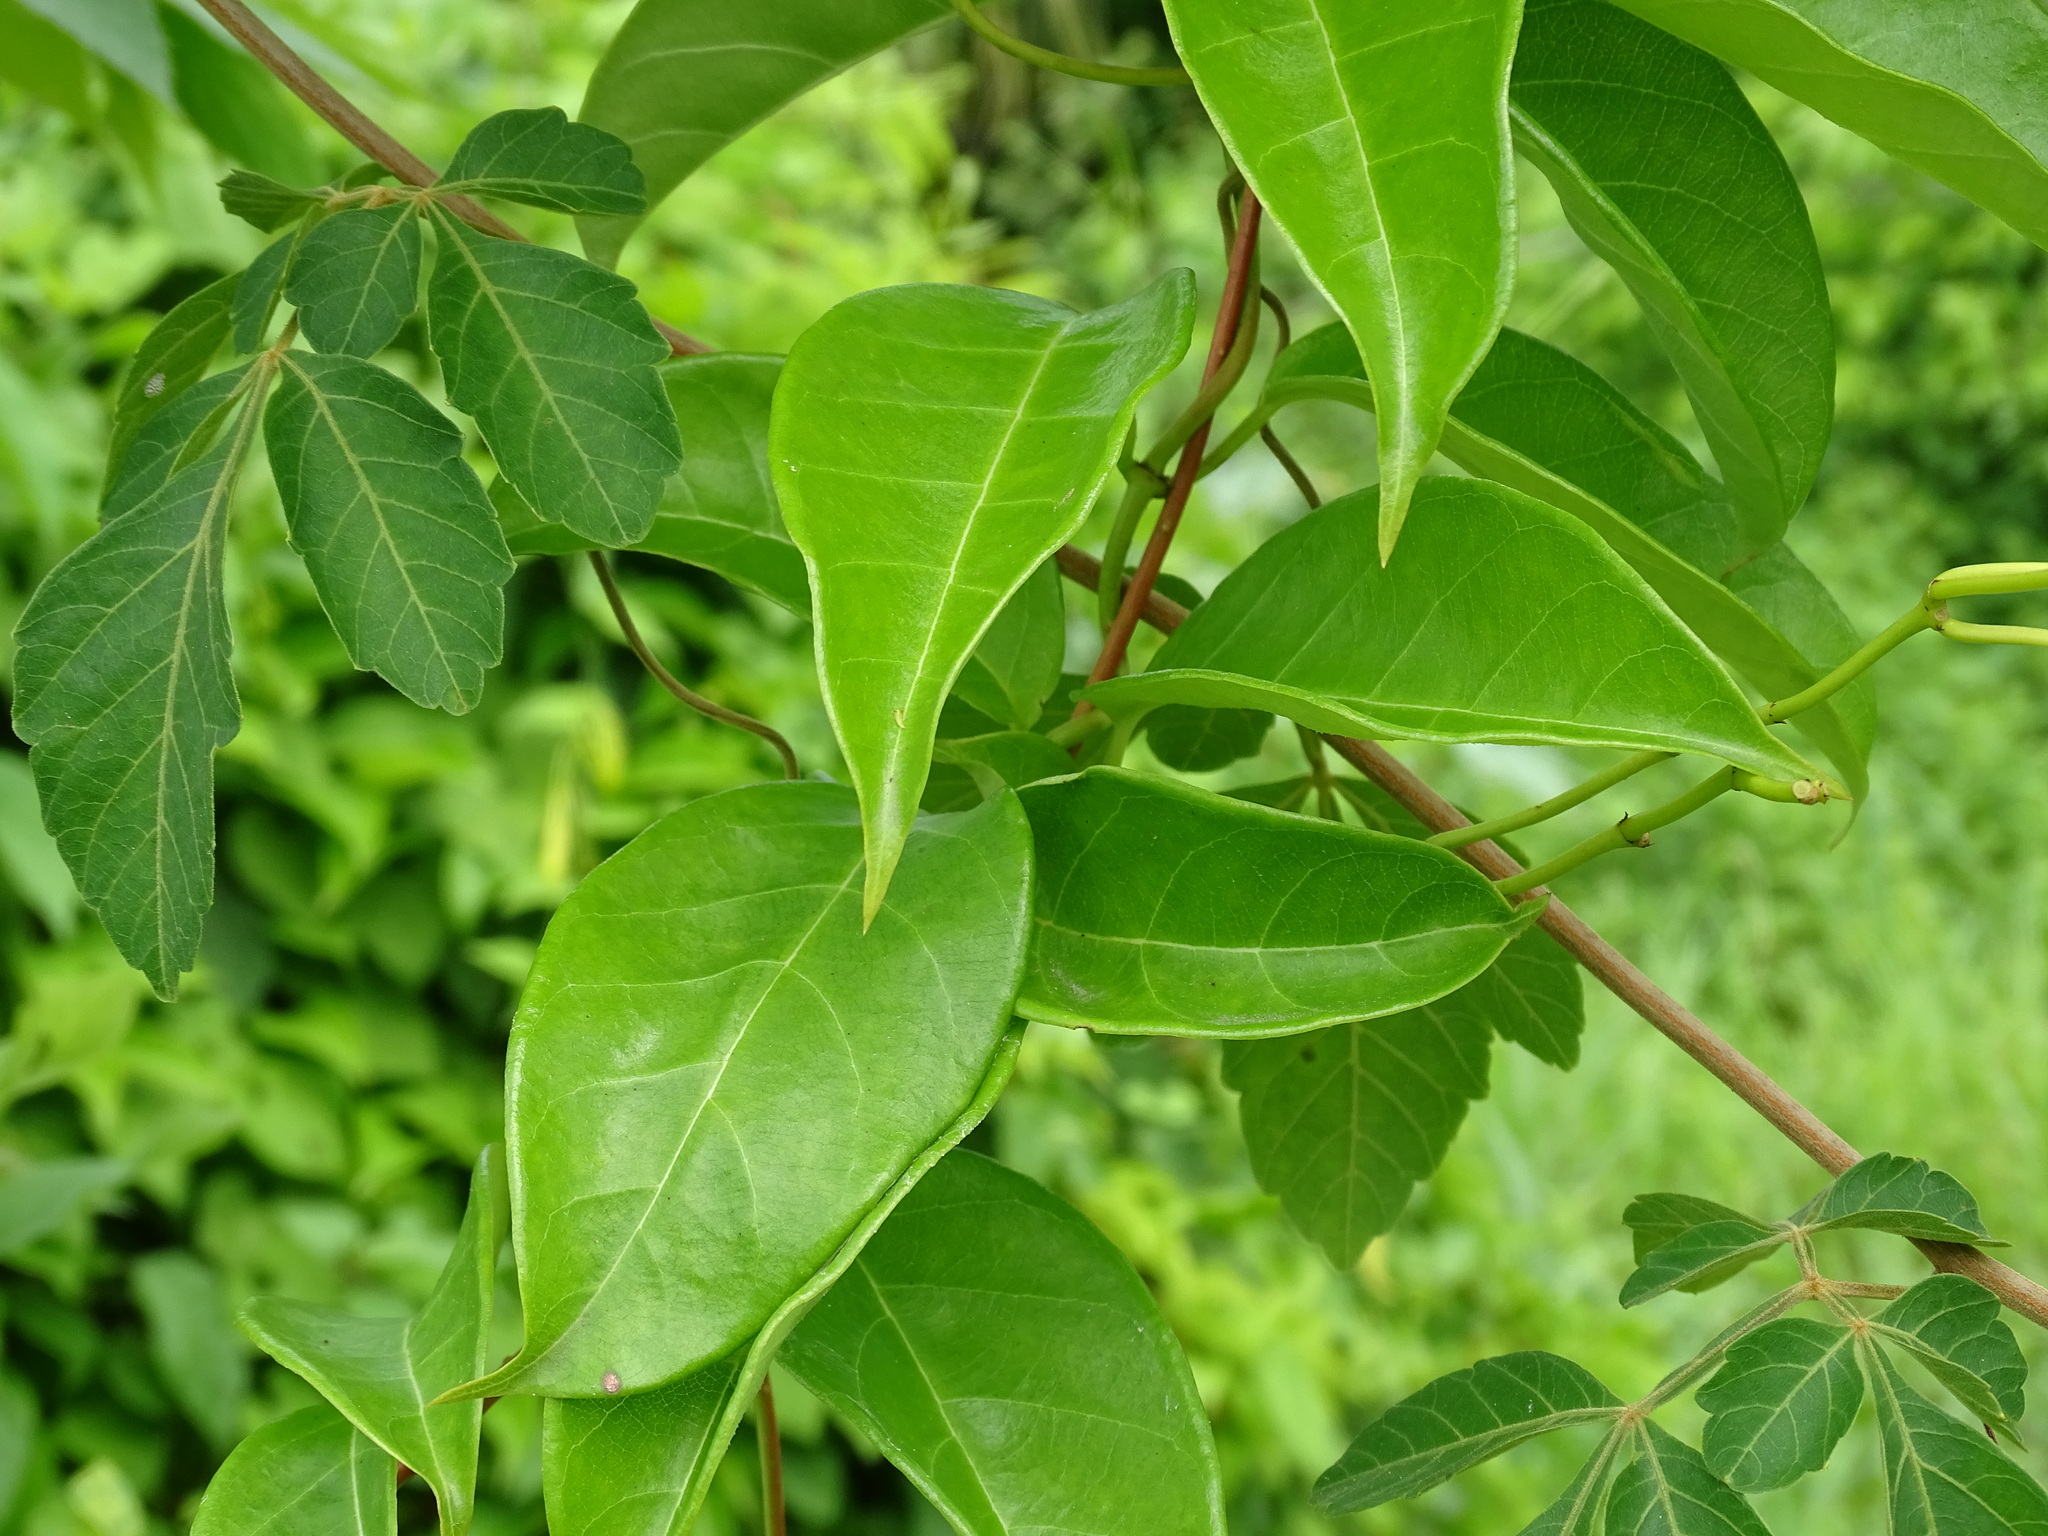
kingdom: Plantae
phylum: Tracheophyta
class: Magnoliopsida
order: Gentianales
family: Apocynaceae
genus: Pentalinon
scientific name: Pentalinon andrieuxii
